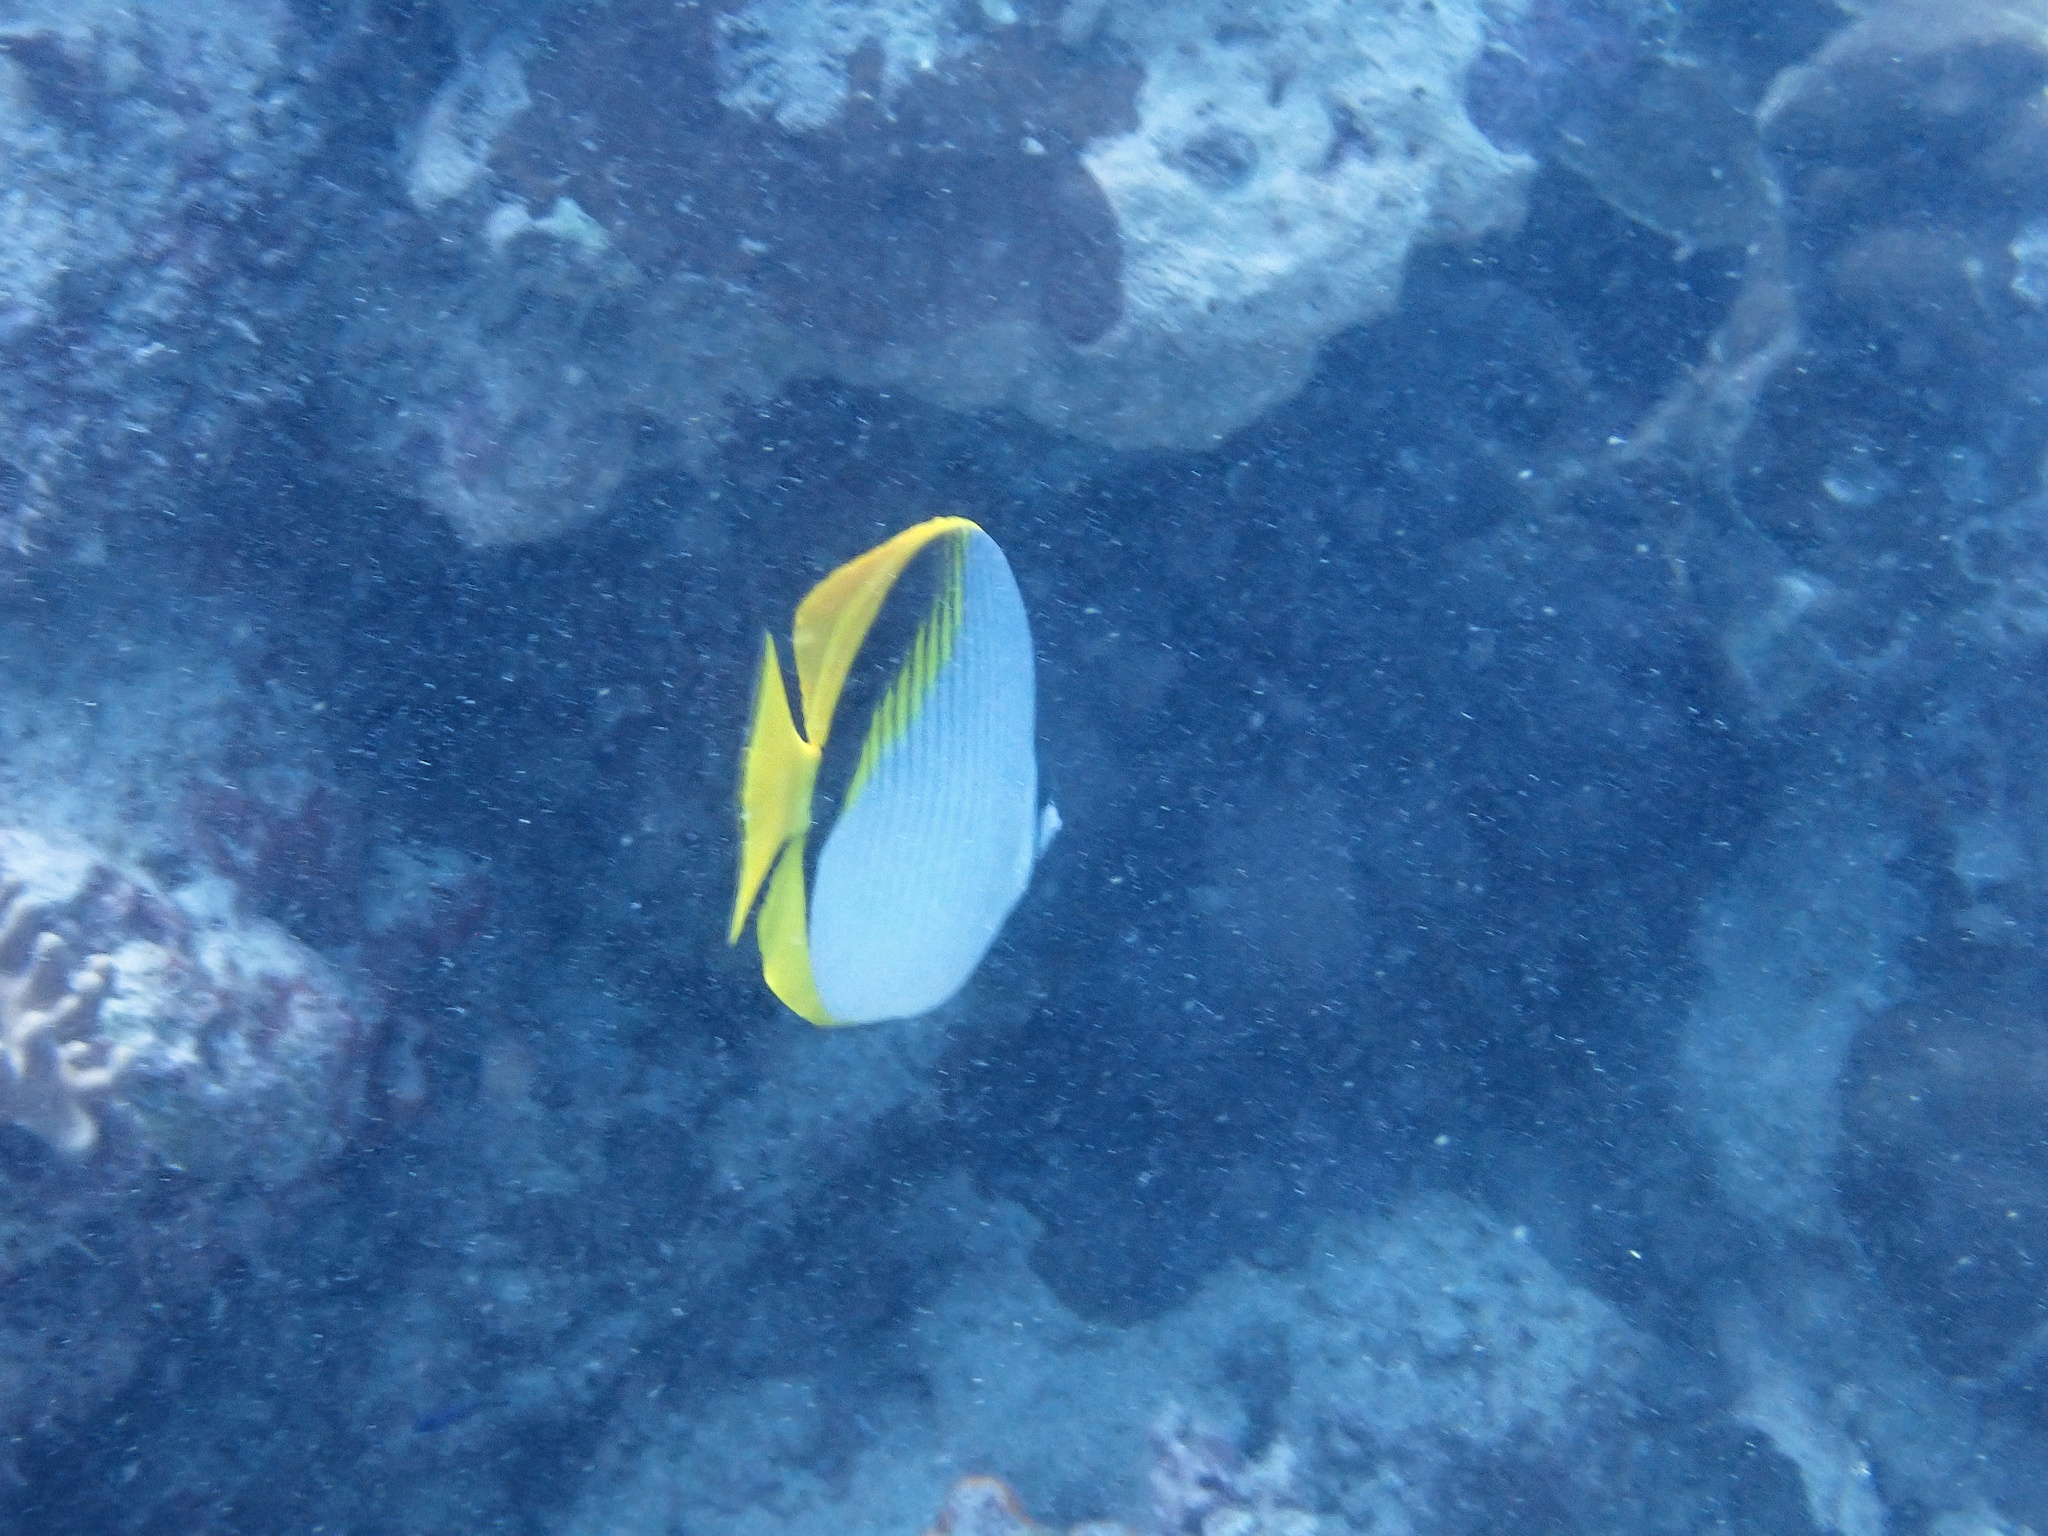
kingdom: Animalia
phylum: Chordata
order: Perciformes
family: Chaetodontidae
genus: Chaetodon
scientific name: Chaetodon lineolatus
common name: Lined butterflyfish
